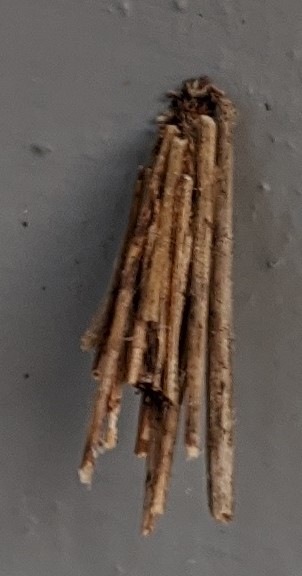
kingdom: Animalia
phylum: Arthropoda
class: Insecta
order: Lepidoptera
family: Psychidae
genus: Psyche
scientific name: Psyche casta
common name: Common sweep
